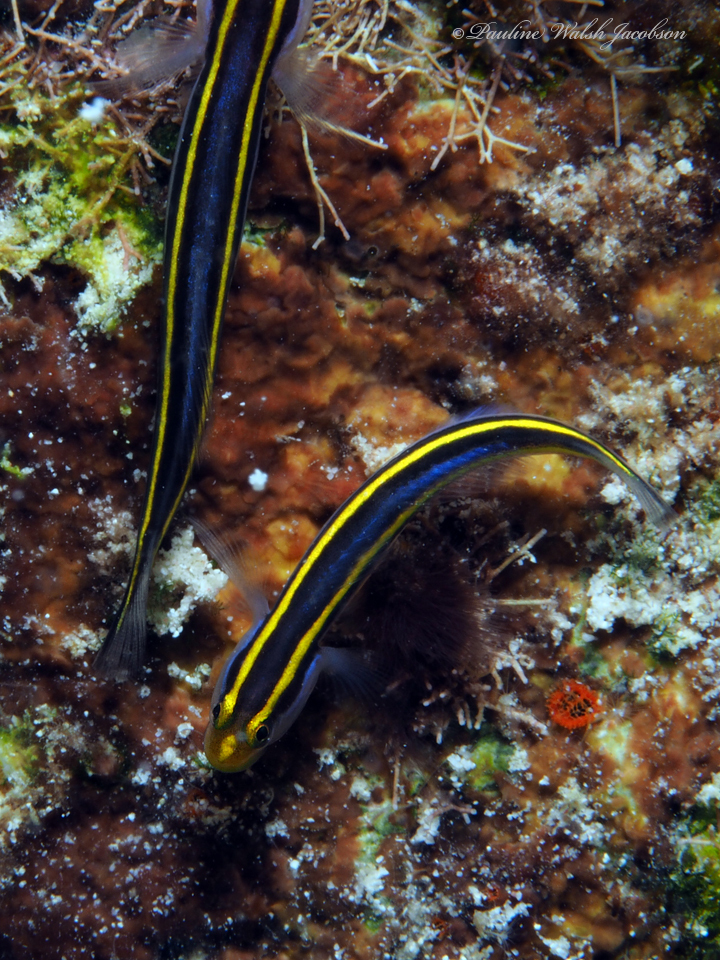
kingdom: Animalia
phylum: Chordata
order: Perciformes
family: Gobiidae
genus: Elacatinus
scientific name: Elacatinus randalli
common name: Yellownose goby
